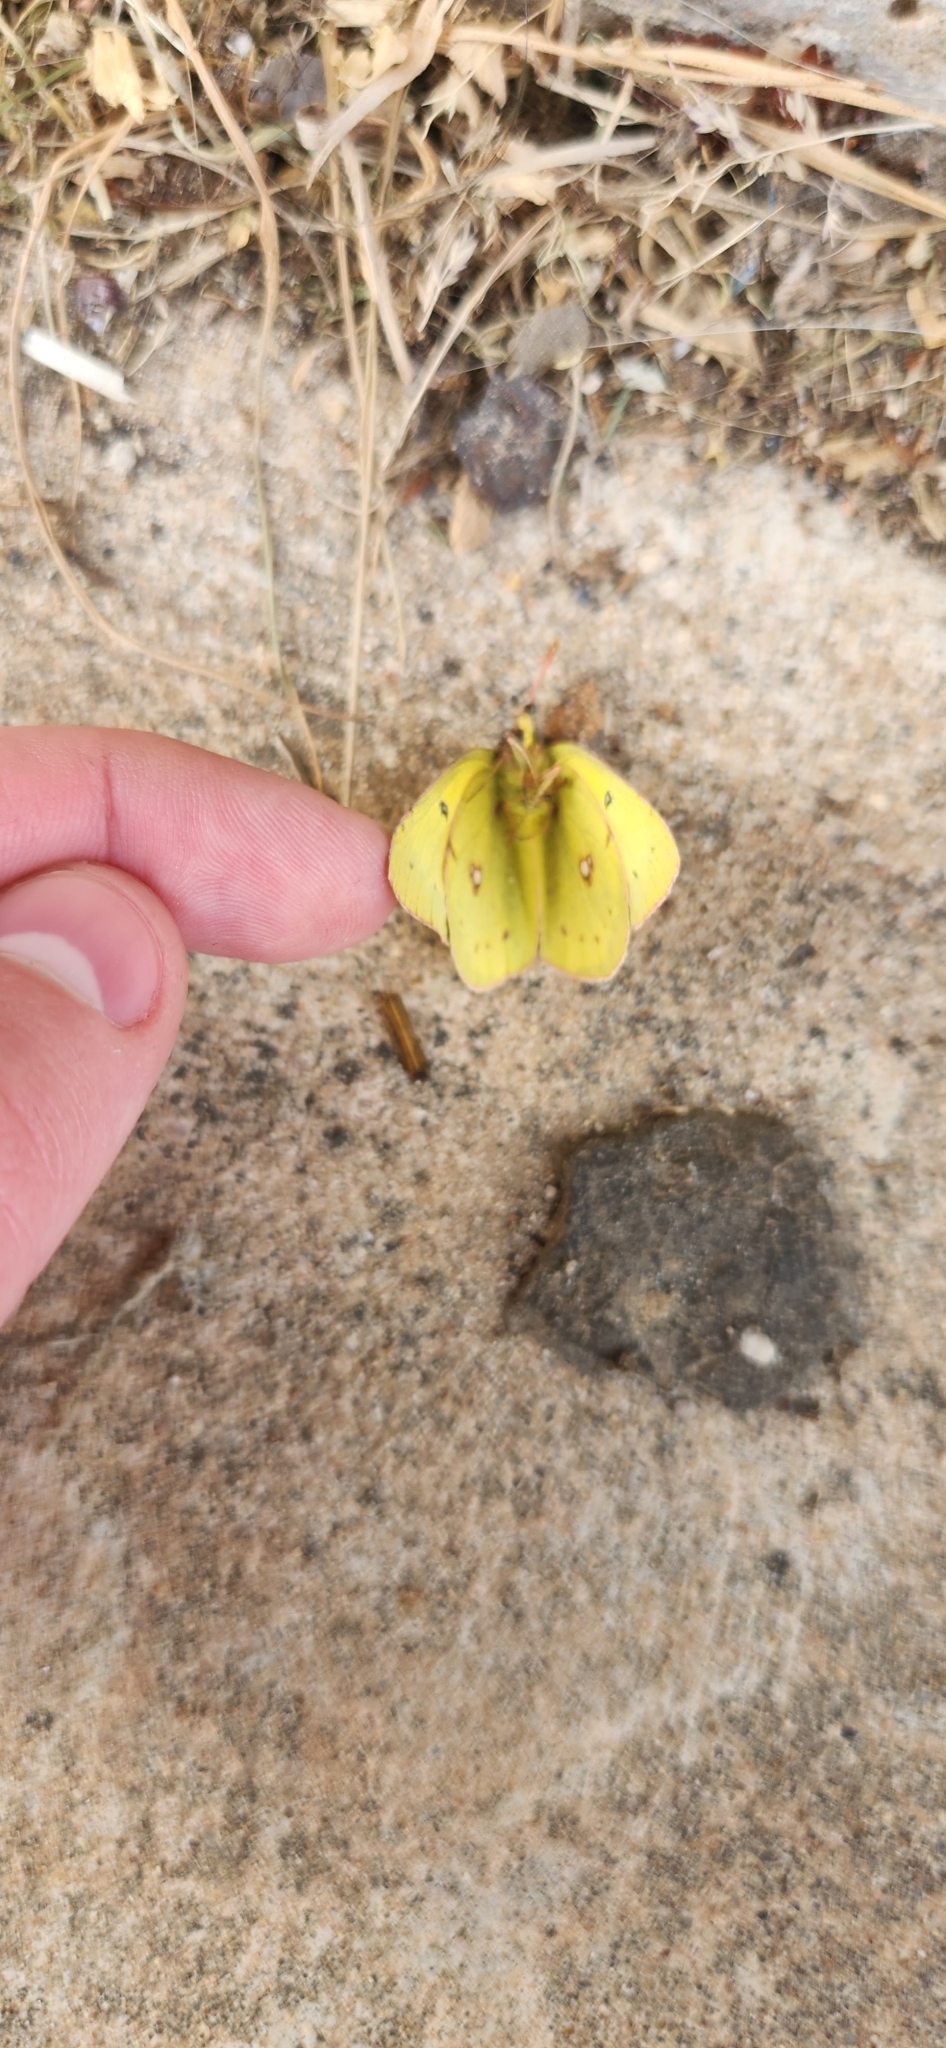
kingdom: Animalia
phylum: Arthropoda
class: Insecta
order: Lepidoptera
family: Pieridae
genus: Colias
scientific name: Colias eurytheme
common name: Alfalfa butterfly
